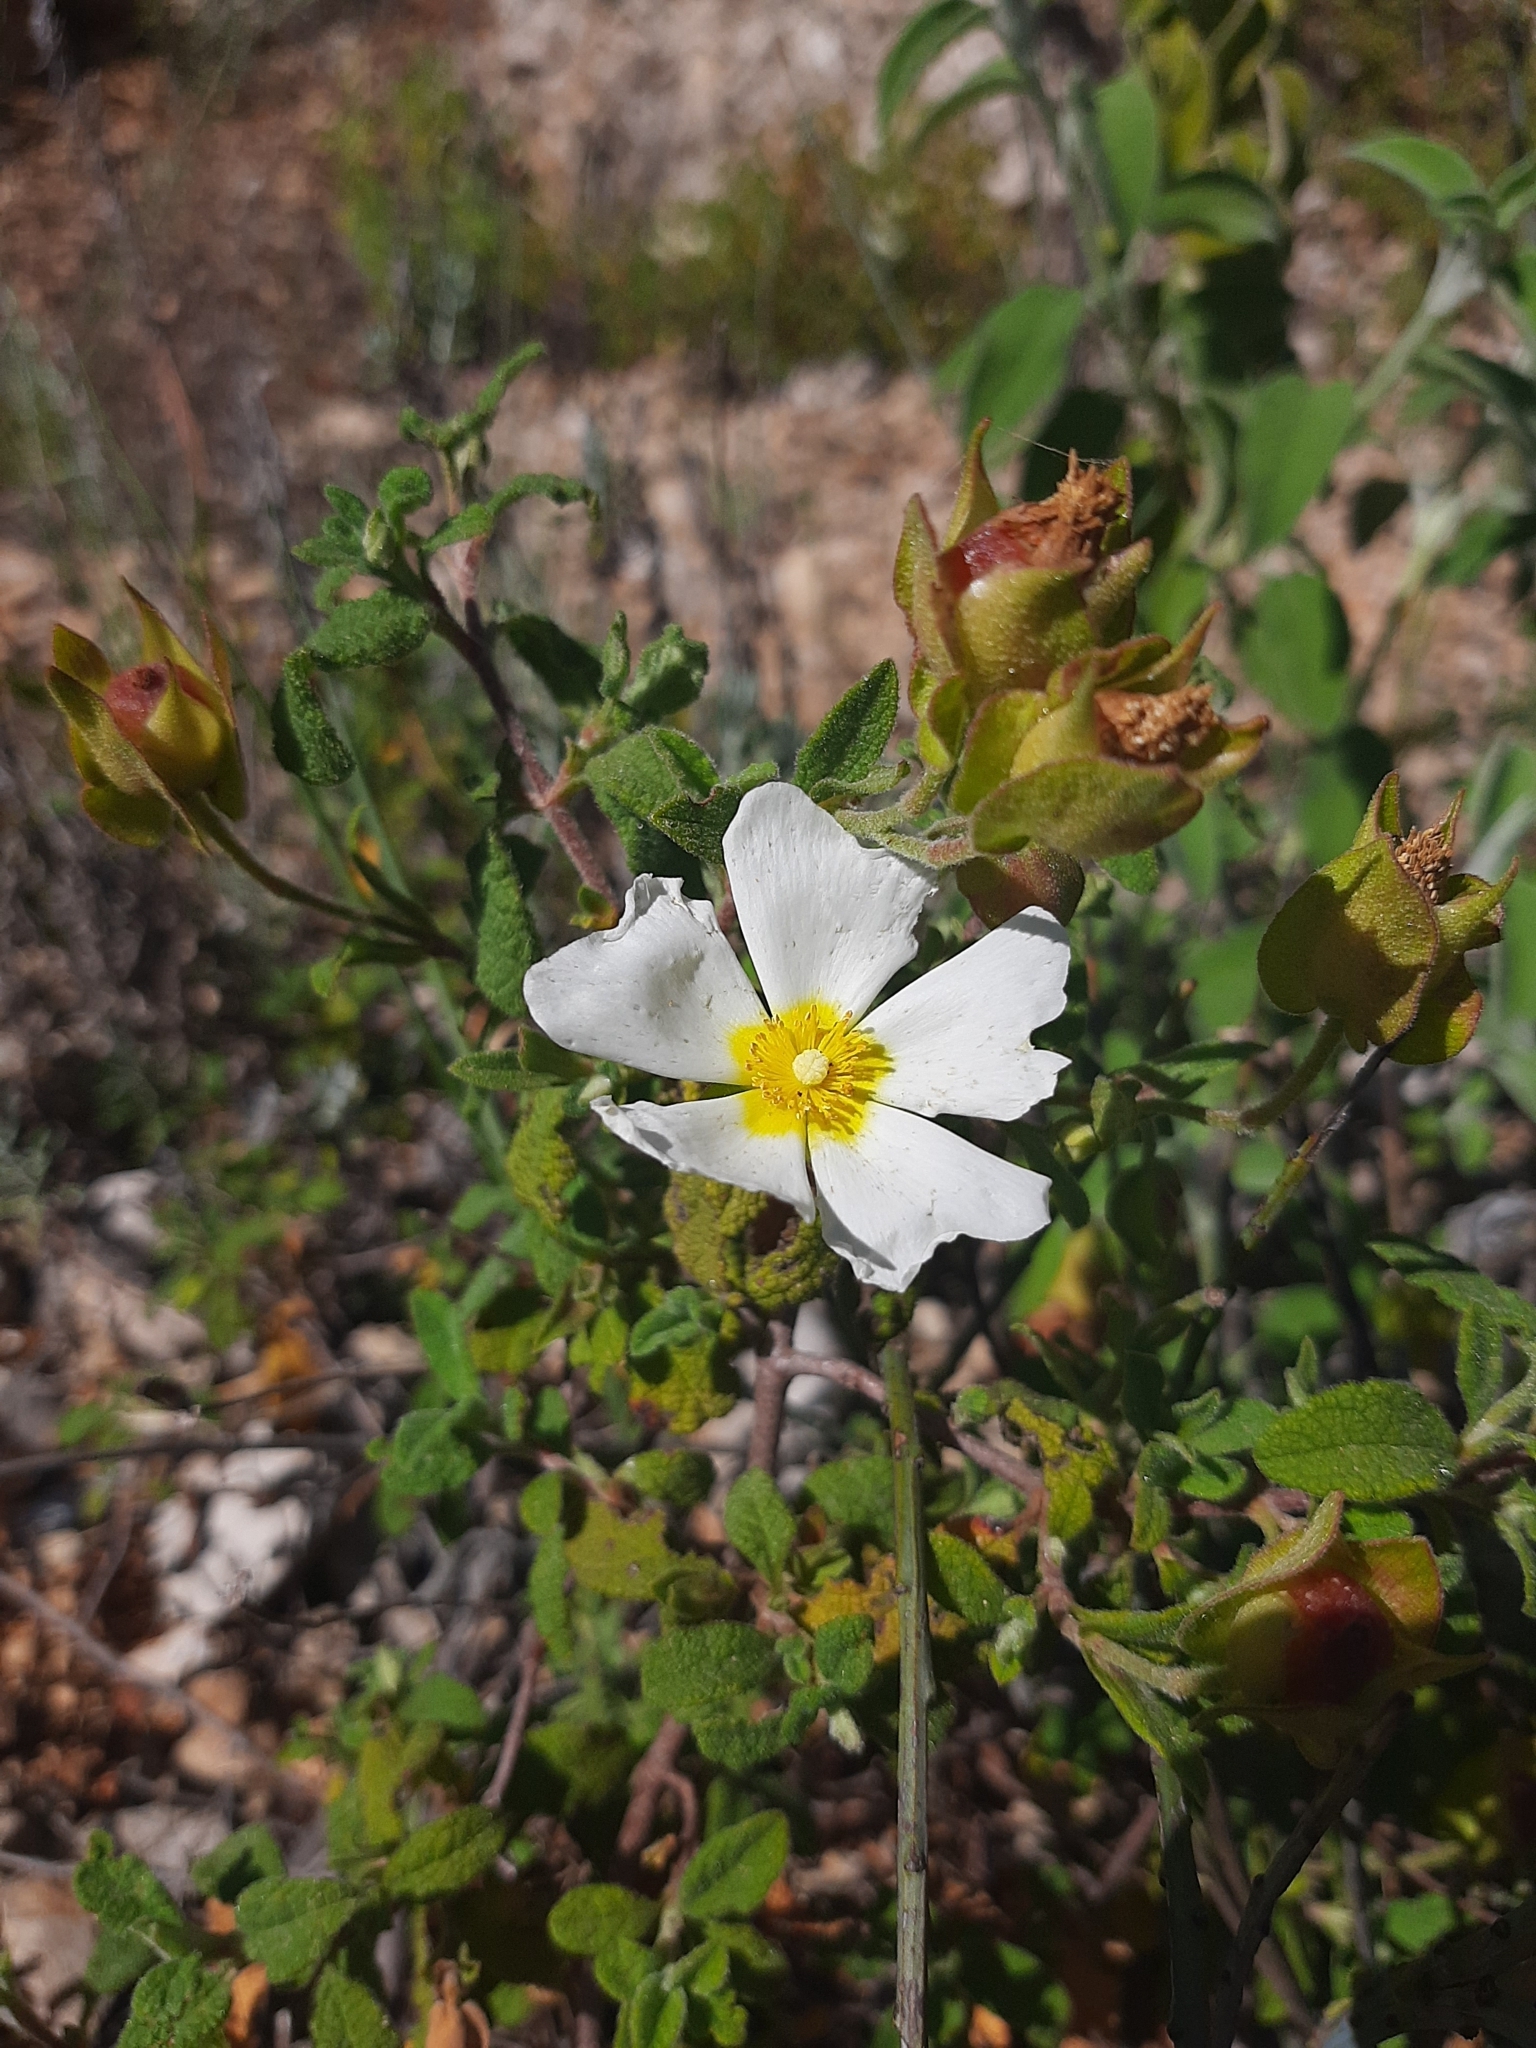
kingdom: Plantae
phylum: Tracheophyta
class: Magnoliopsida
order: Malvales
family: Cistaceae
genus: Cistus
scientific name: Cistus salviifolius
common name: Salvia cistus
